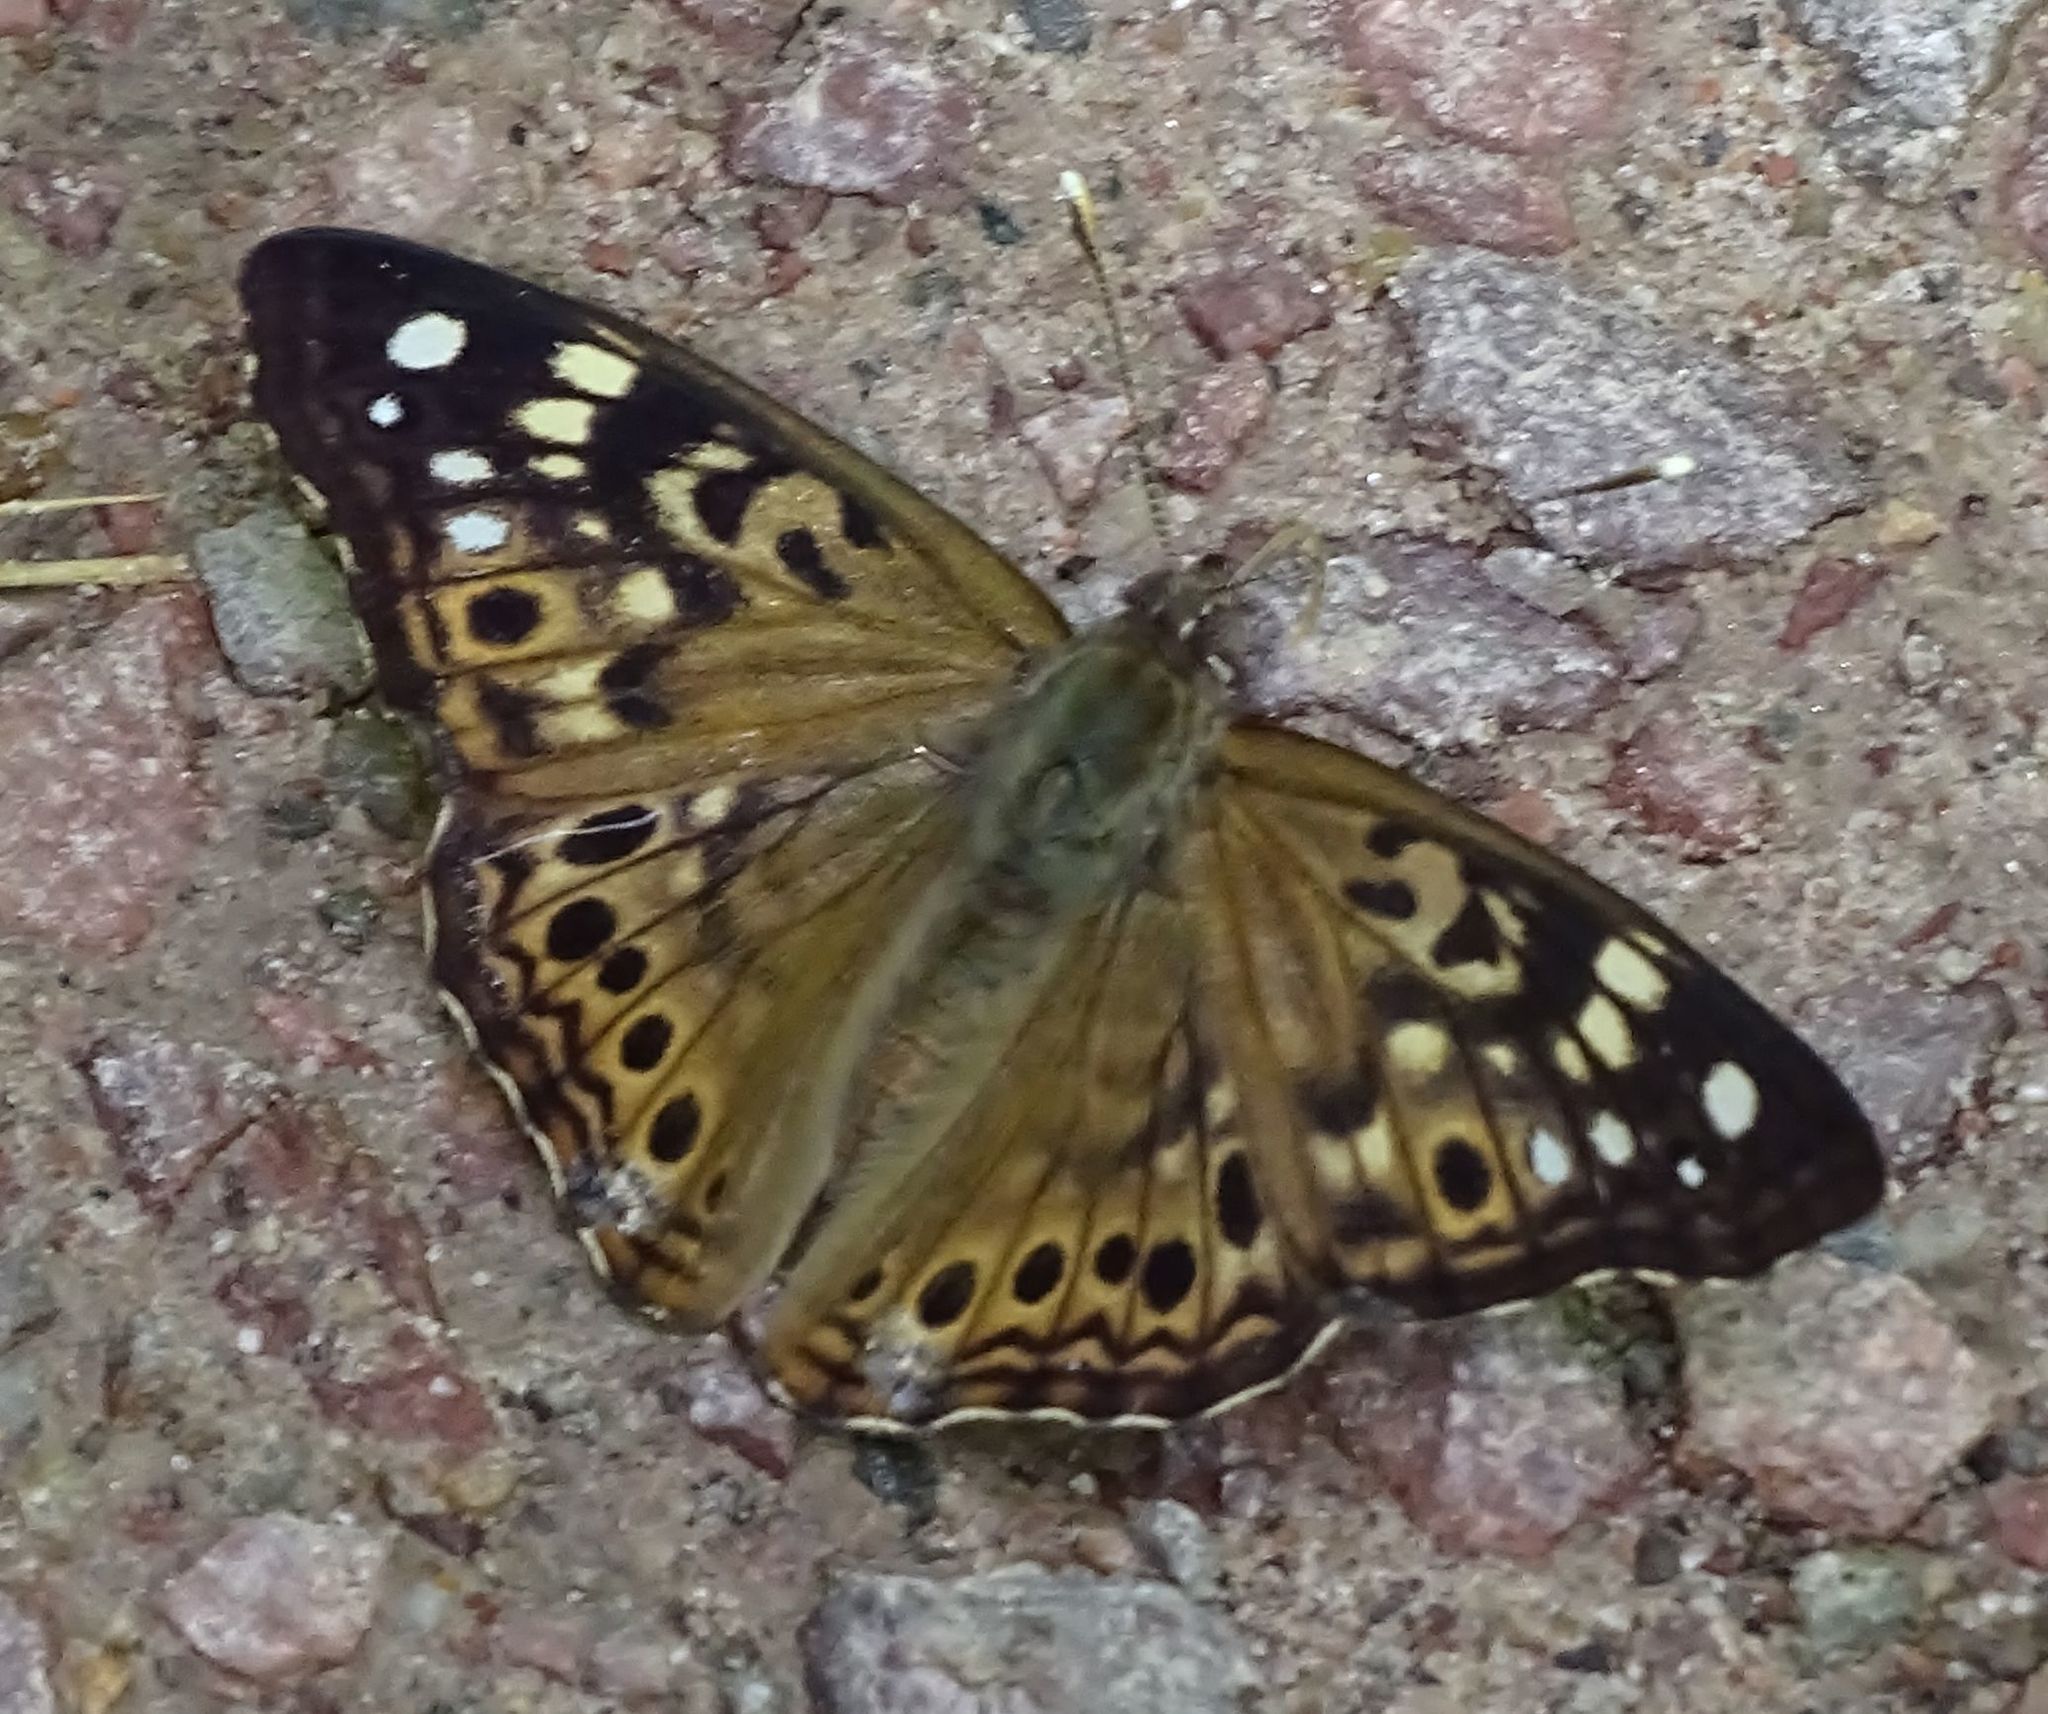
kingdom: Animalia
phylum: Arthropoda
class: Insecta
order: Lepidoptera
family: Nymphalidae
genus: Asterocampa
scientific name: Asterocampa celtis
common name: Hackberry emperor
